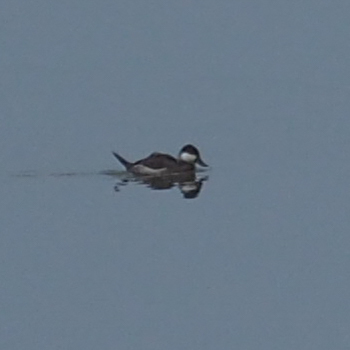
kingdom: Animalia
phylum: Chordata
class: Aves
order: Anseriformes
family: Anatidae
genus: Oxyura
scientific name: Oxyura jamaicensis
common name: Ruddy duck
